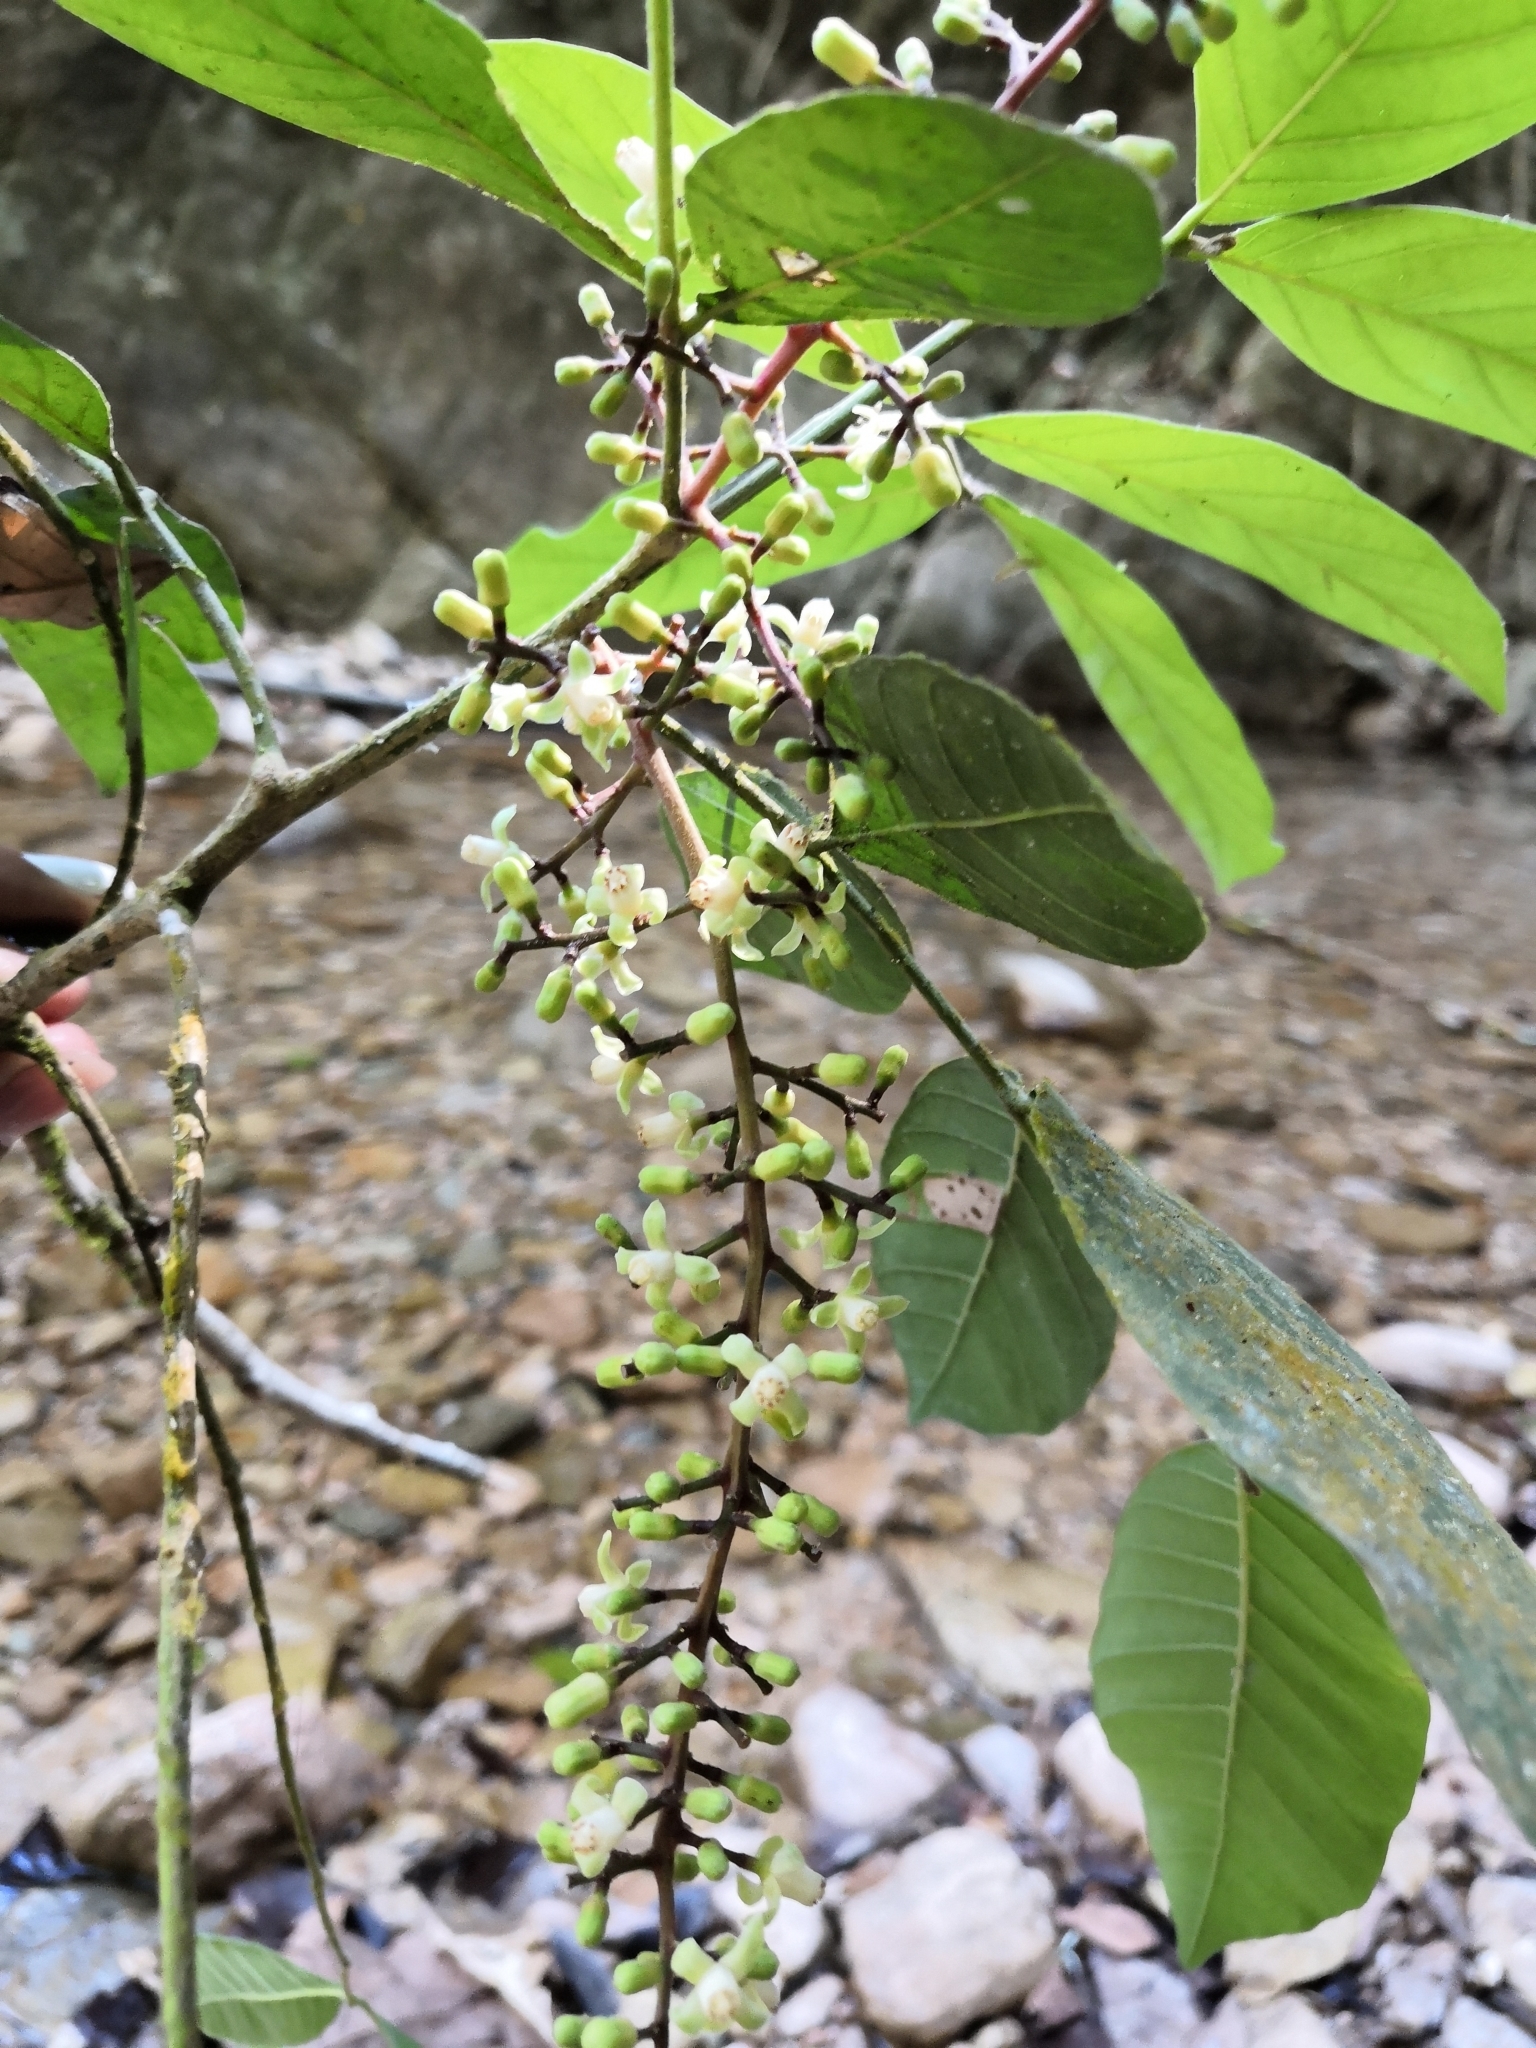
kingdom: Plantae
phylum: Tracheophyta
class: Magnoliopsida
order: Sapindales
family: Meliaceae
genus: Guarea
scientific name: Guarea glabra
